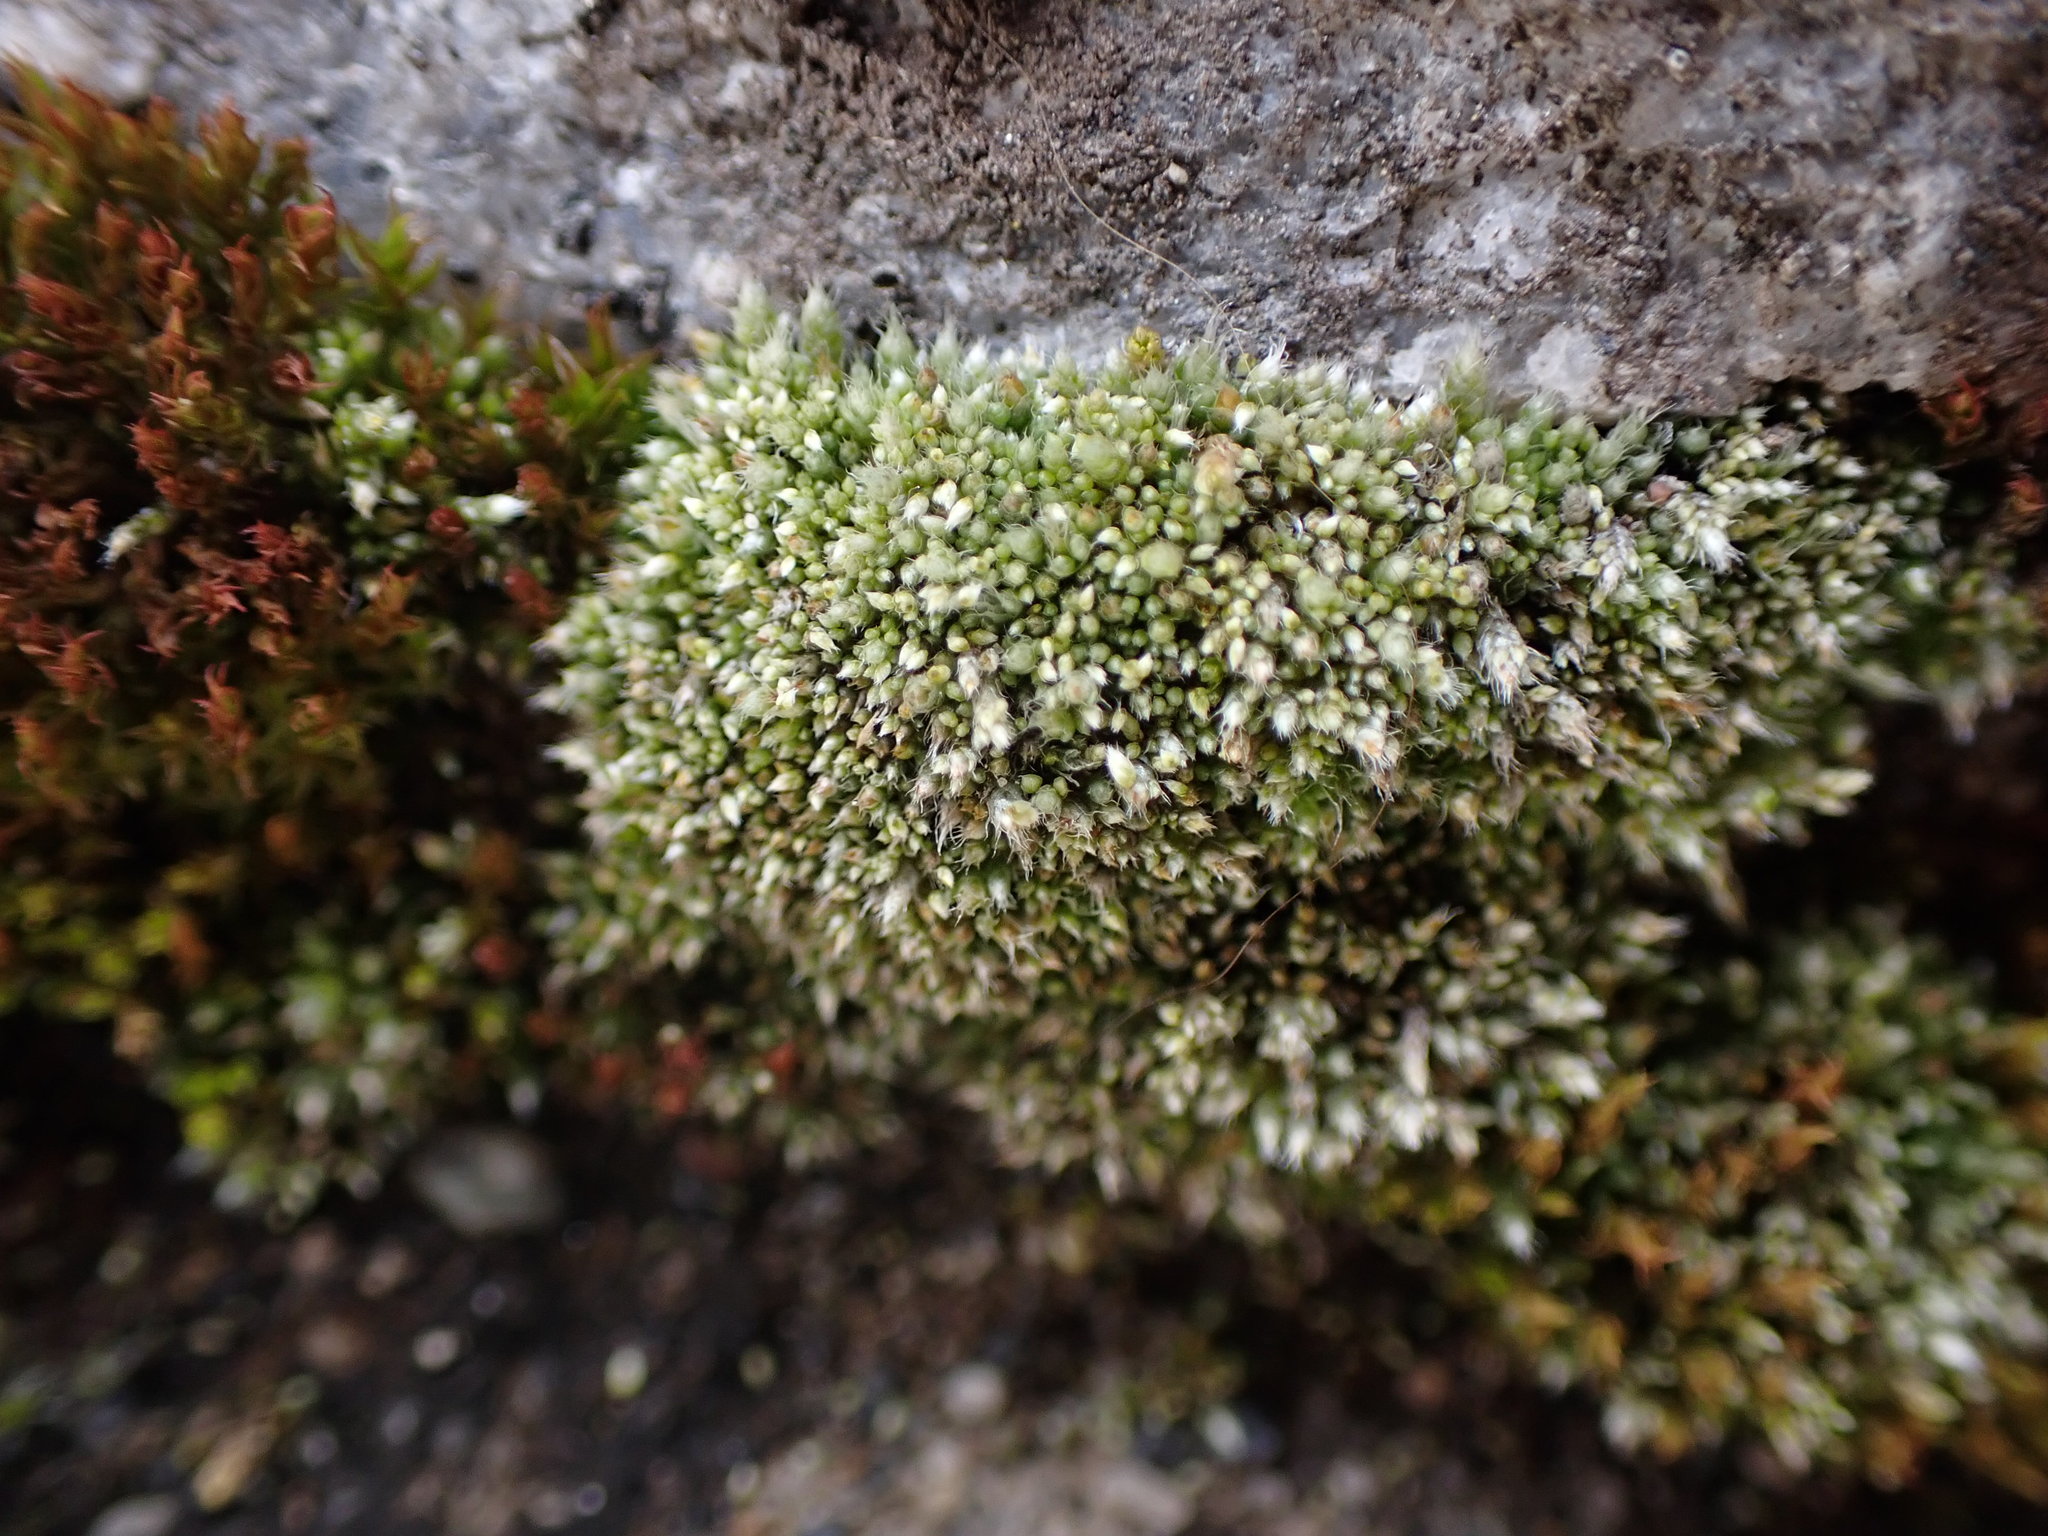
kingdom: Plantae
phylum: Bryophyta
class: Bryopsida
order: Bryales
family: Bryaceae
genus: Bryum
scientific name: Bryum argenteum
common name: Silver-moss
